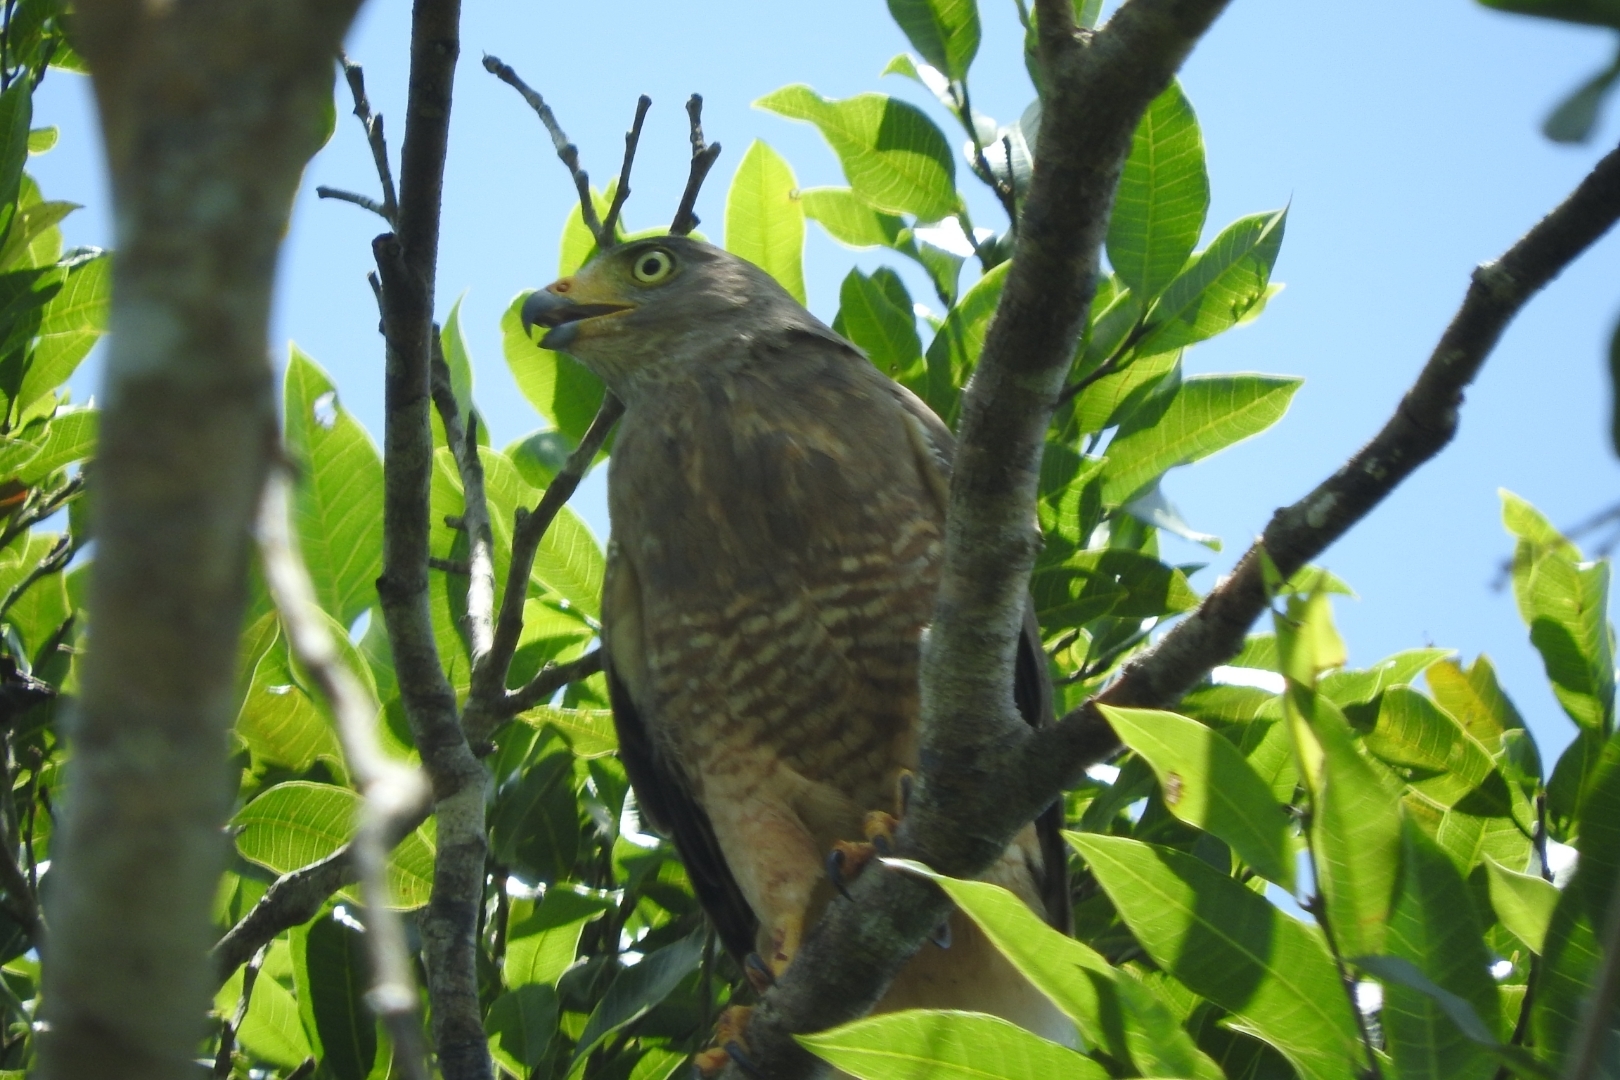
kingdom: Animalia
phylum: Chordata
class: Aves
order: Accipitriformes
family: Accipitridae
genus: Rupornis
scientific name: Rupornis magnirostris
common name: Roadside hawk
